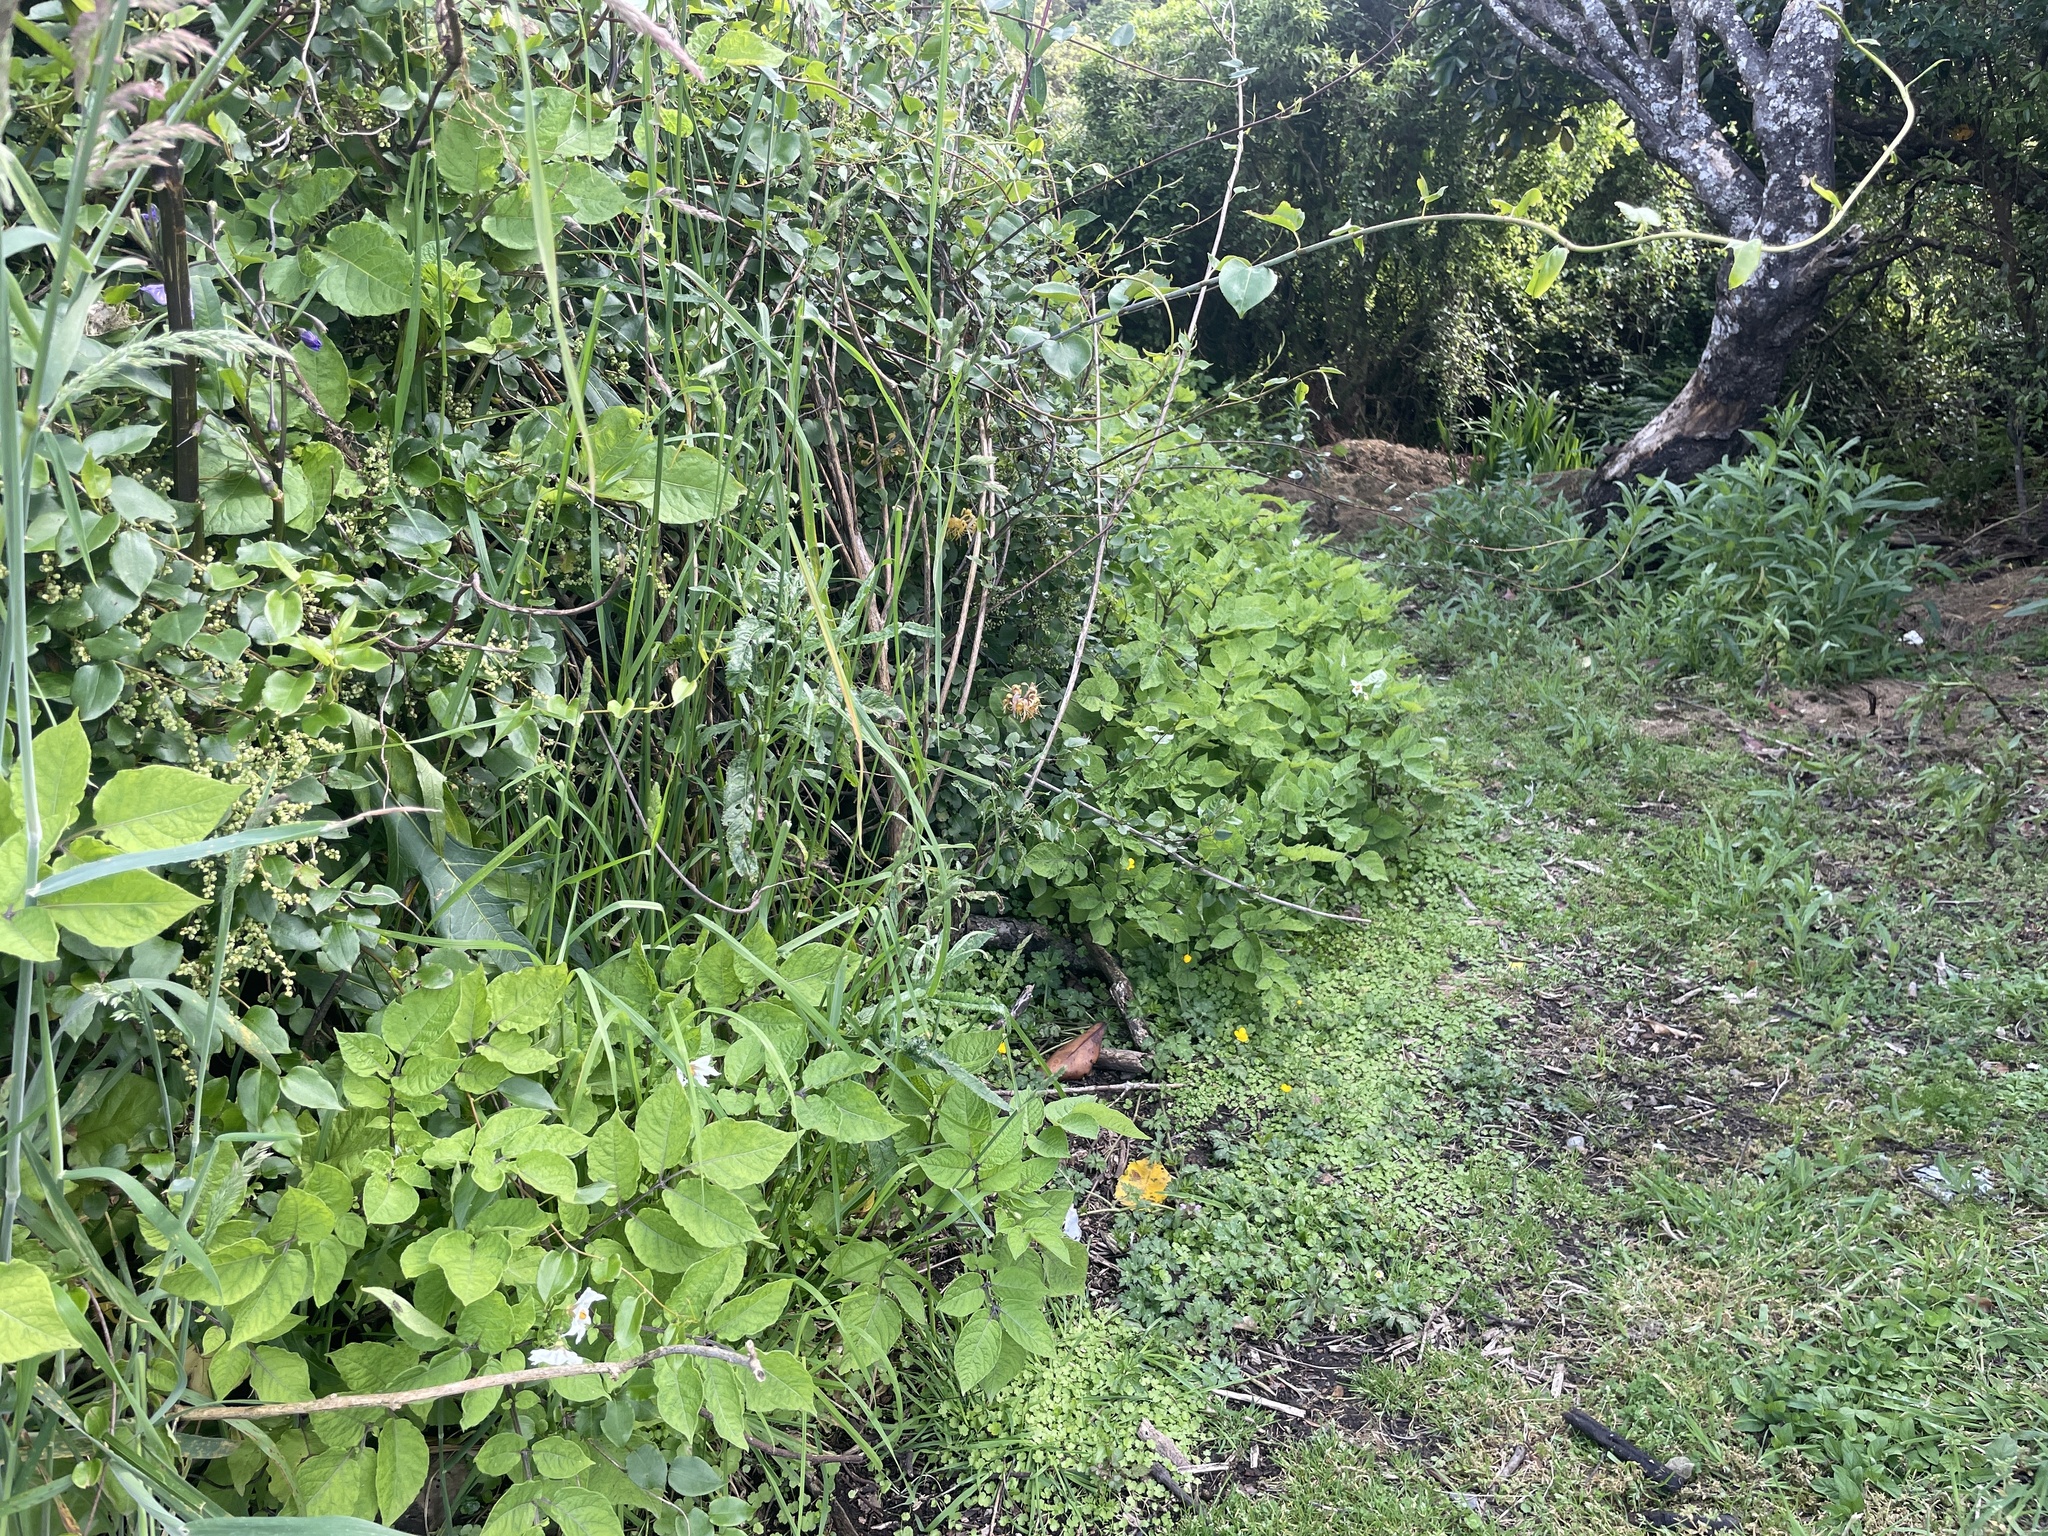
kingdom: Plantae
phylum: Tracheophyta
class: Magnoliopsida
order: Solanales
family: Solanaceae
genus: Solanum
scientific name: Solanum tuberosum
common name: Potato
